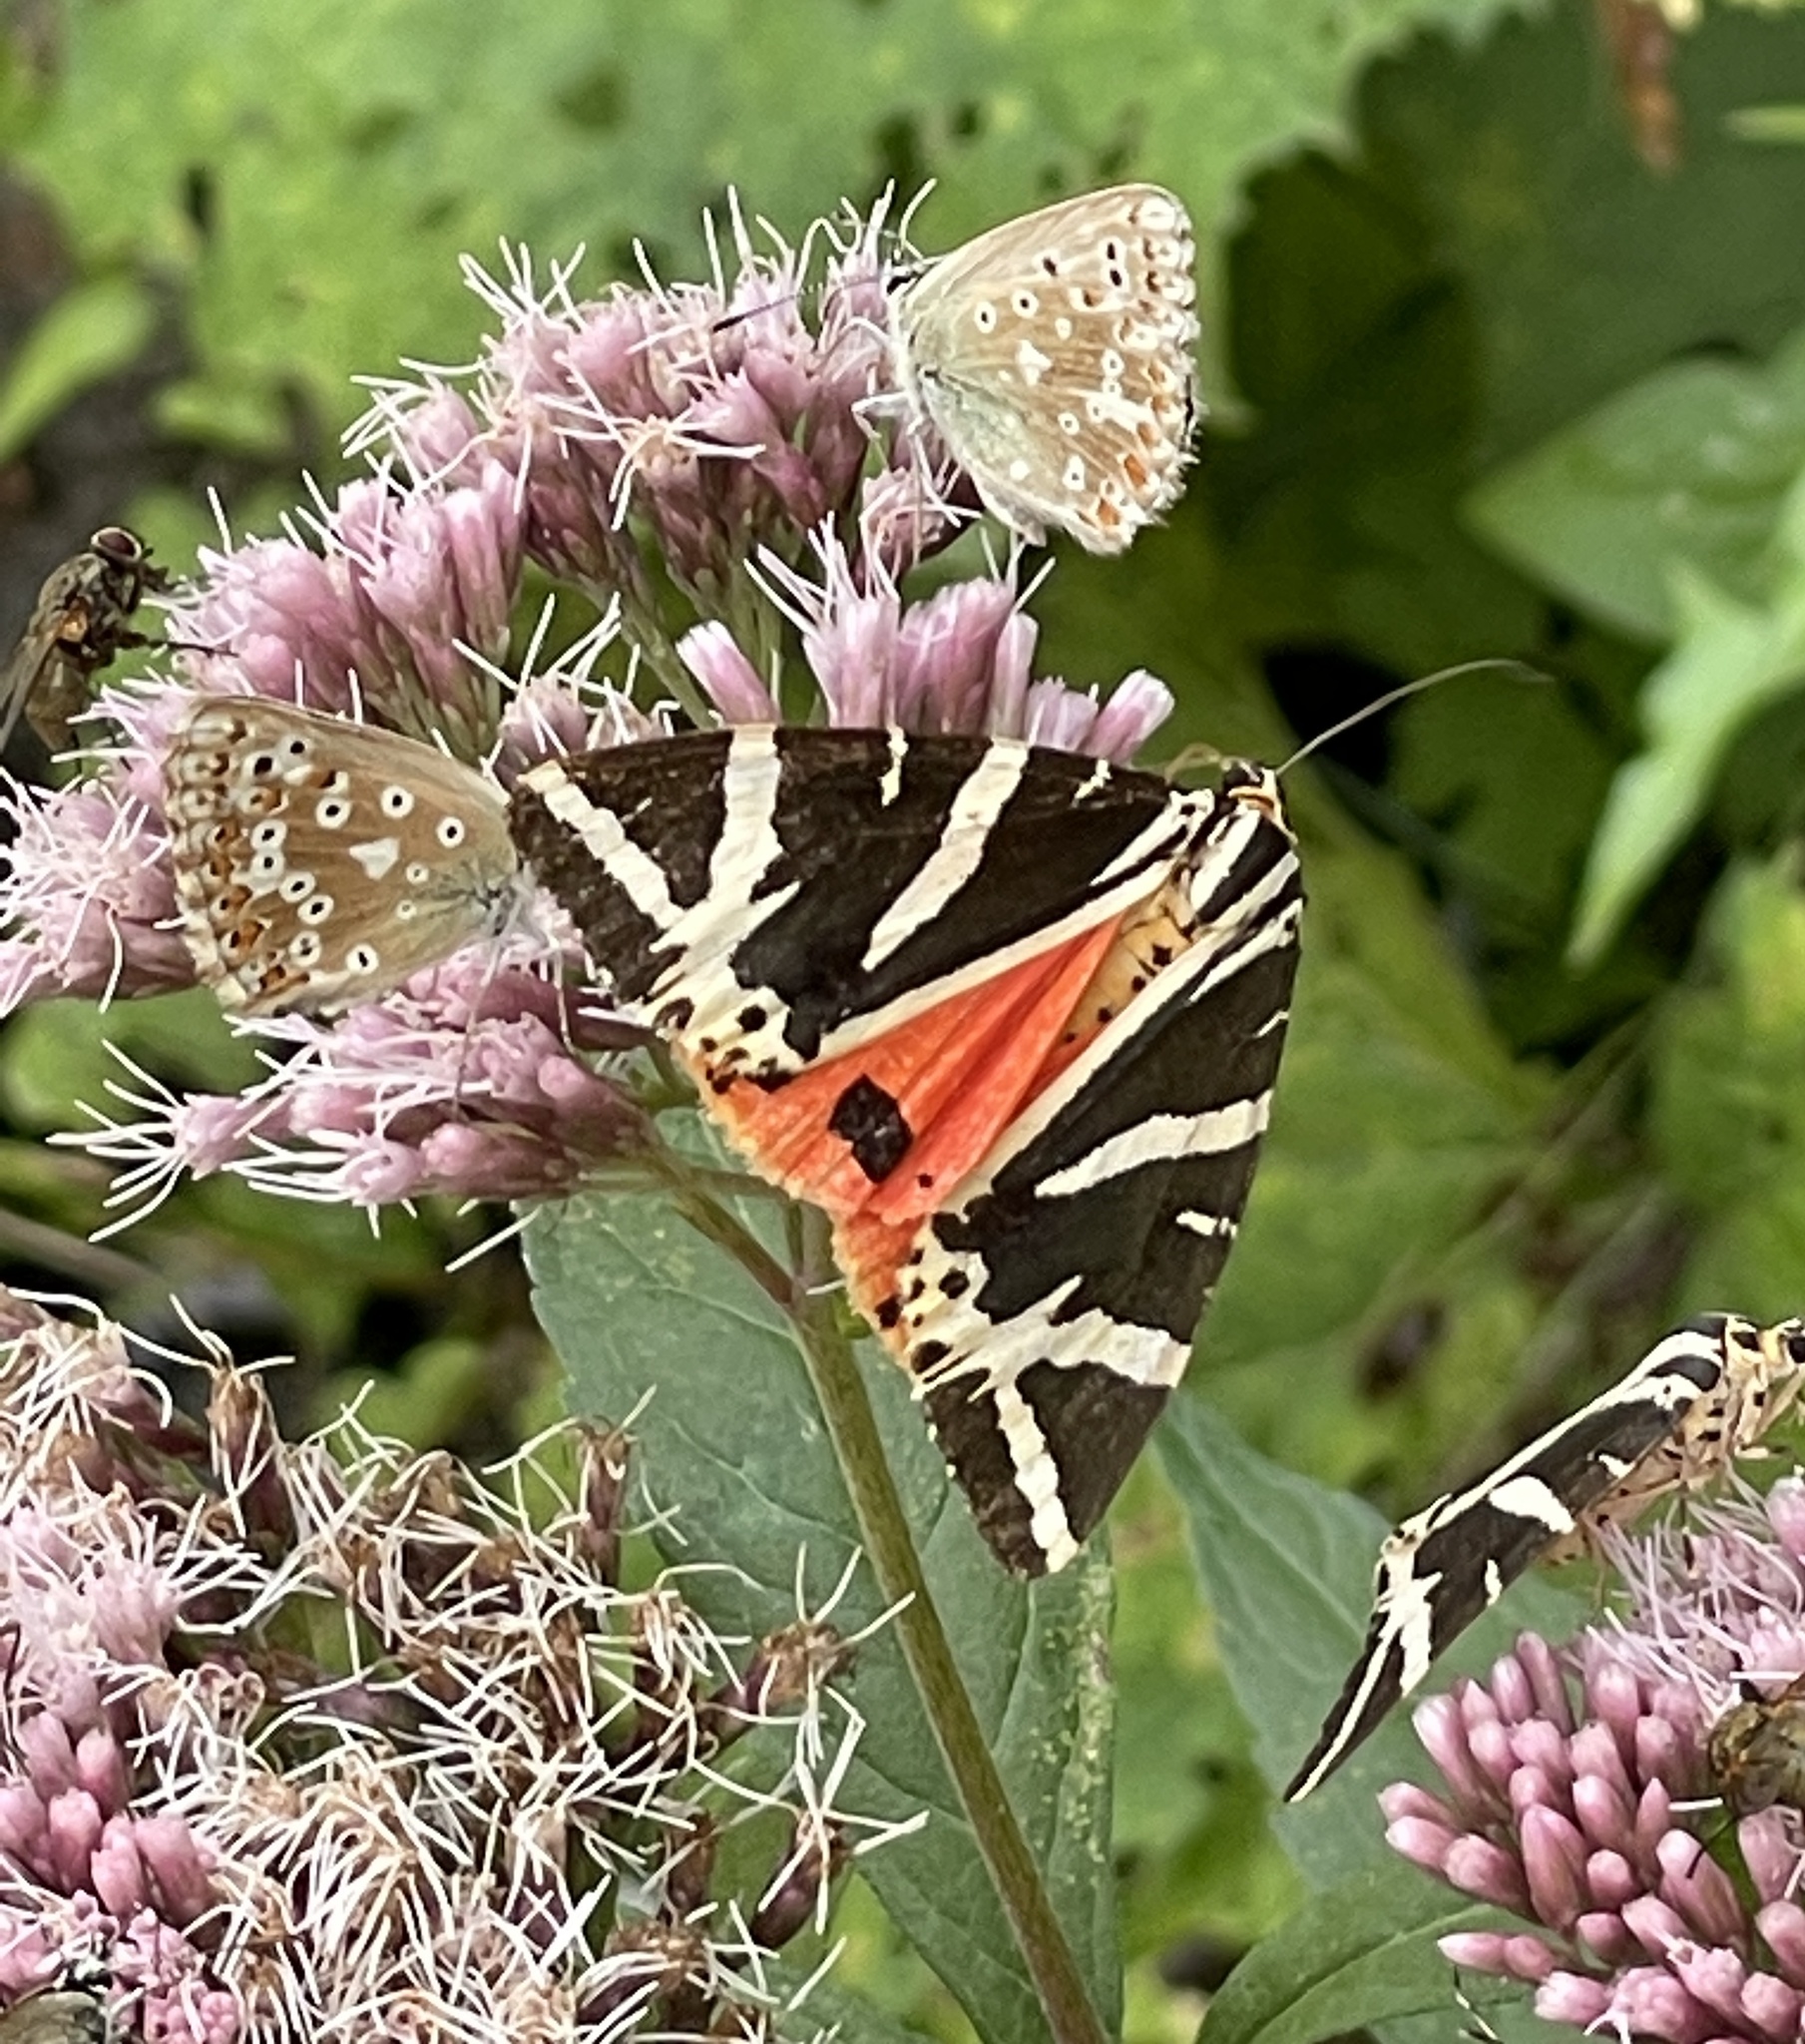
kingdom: Animalia
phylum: Arthropoda
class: Insecta
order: Lepidoptera
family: Erebidae
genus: Euplagia
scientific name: Euplagia quadripunctaria
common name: Jersey tiger
